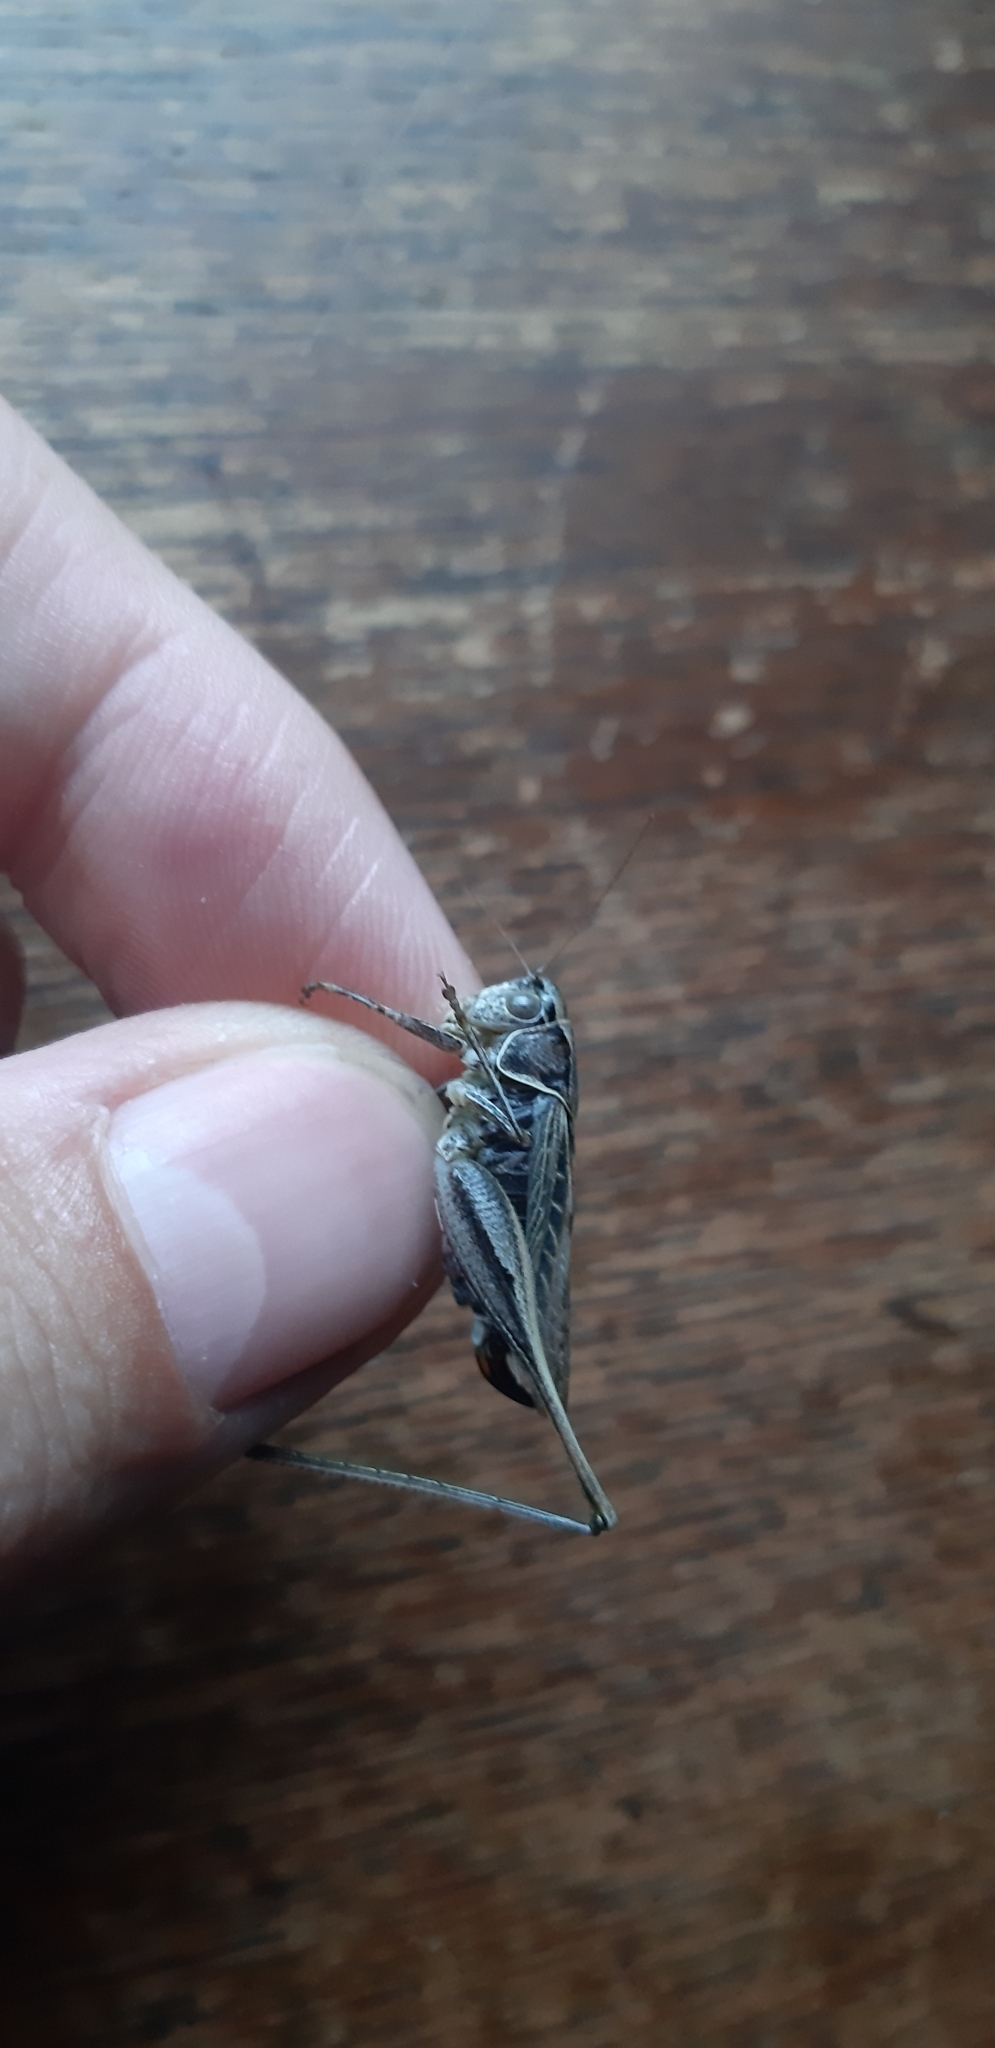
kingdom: Animalia
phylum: Arthropoda
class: Insecta
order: Orthoptera
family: Tettigoniidae
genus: Tessellana
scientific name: Tessellana tessellata
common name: Grasshopper
